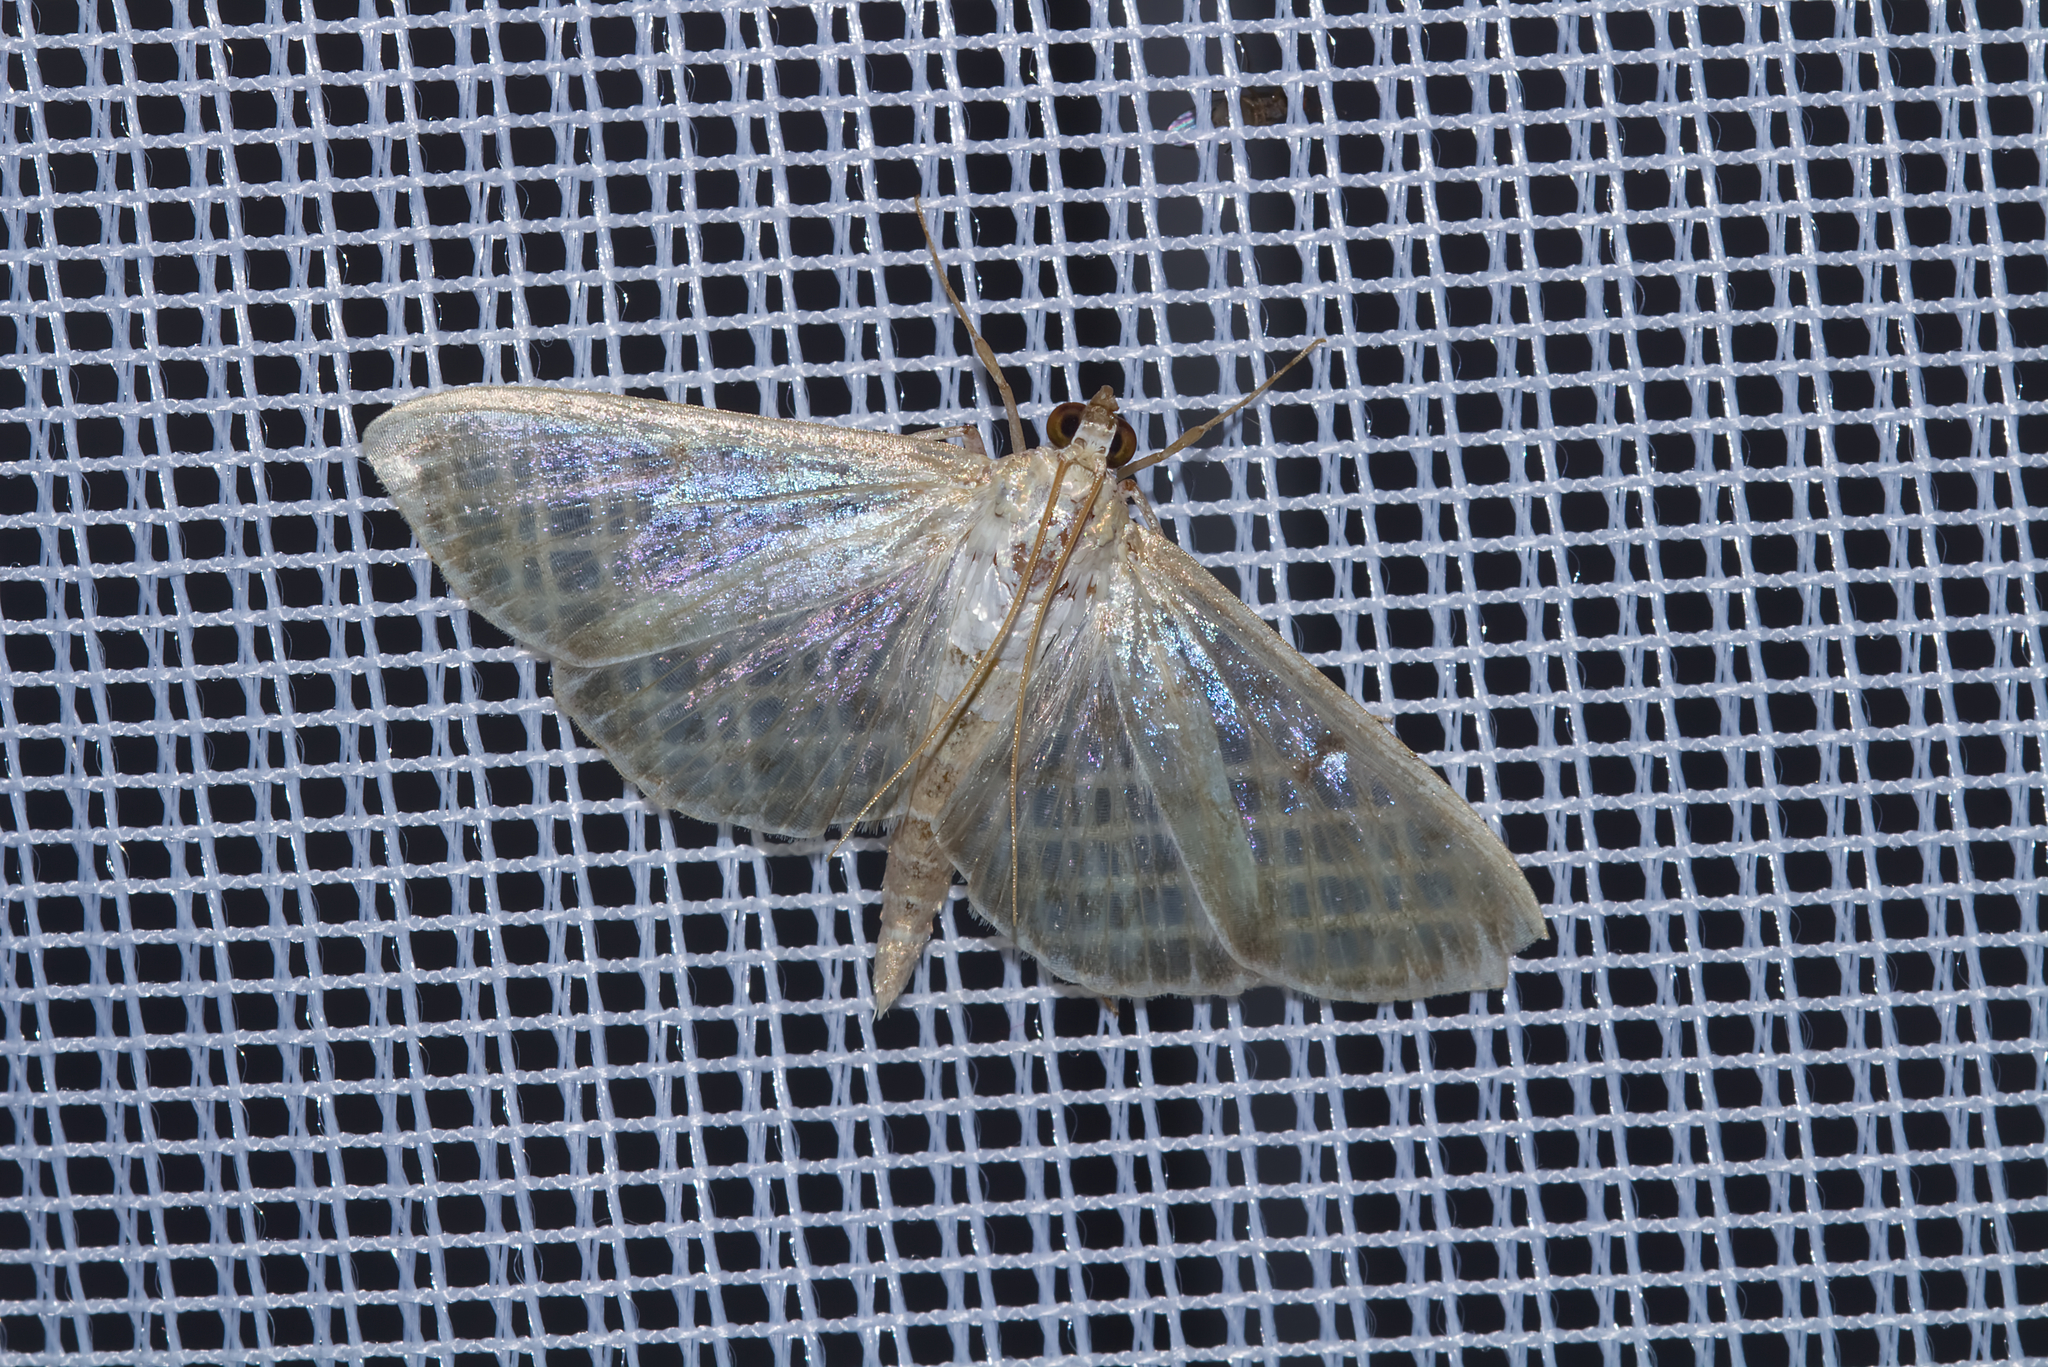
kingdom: Animalia
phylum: Arthropoda
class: Insecta
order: Lepidoptera
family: Crambidae
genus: Patania
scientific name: Patania ruralis
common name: Mother of pearl
